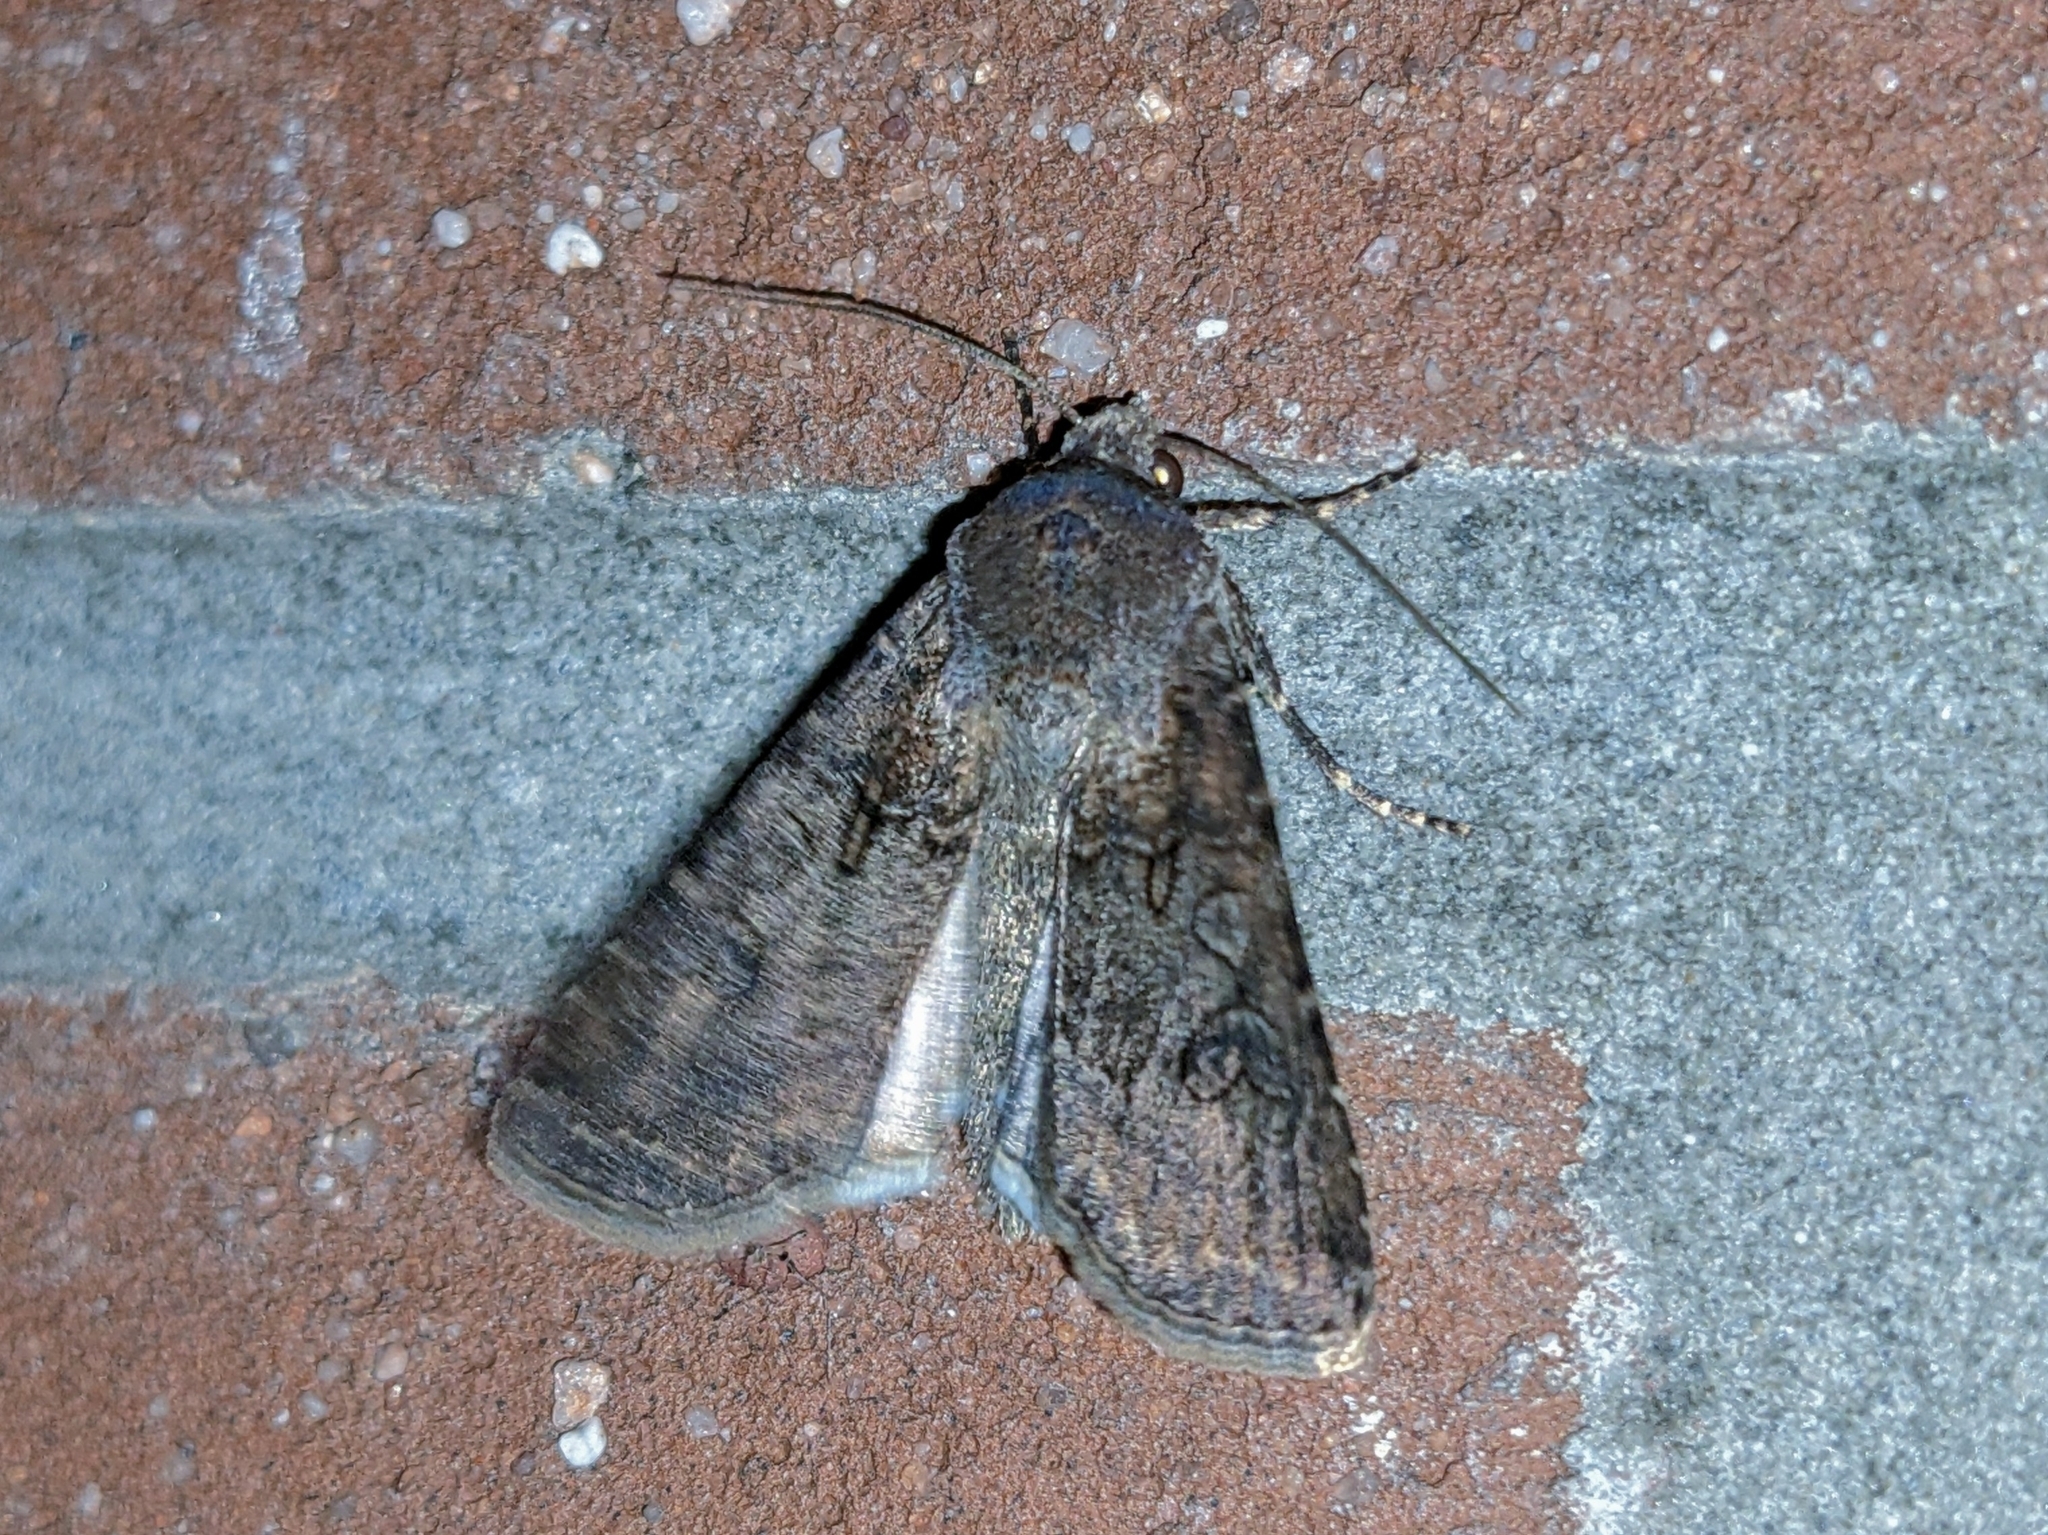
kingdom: Animalia
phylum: Arthropoda
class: Insecta
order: Lepidoptera
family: Noctuidae
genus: Agrotis
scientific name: Agrotis segetum
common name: Turnip moth
